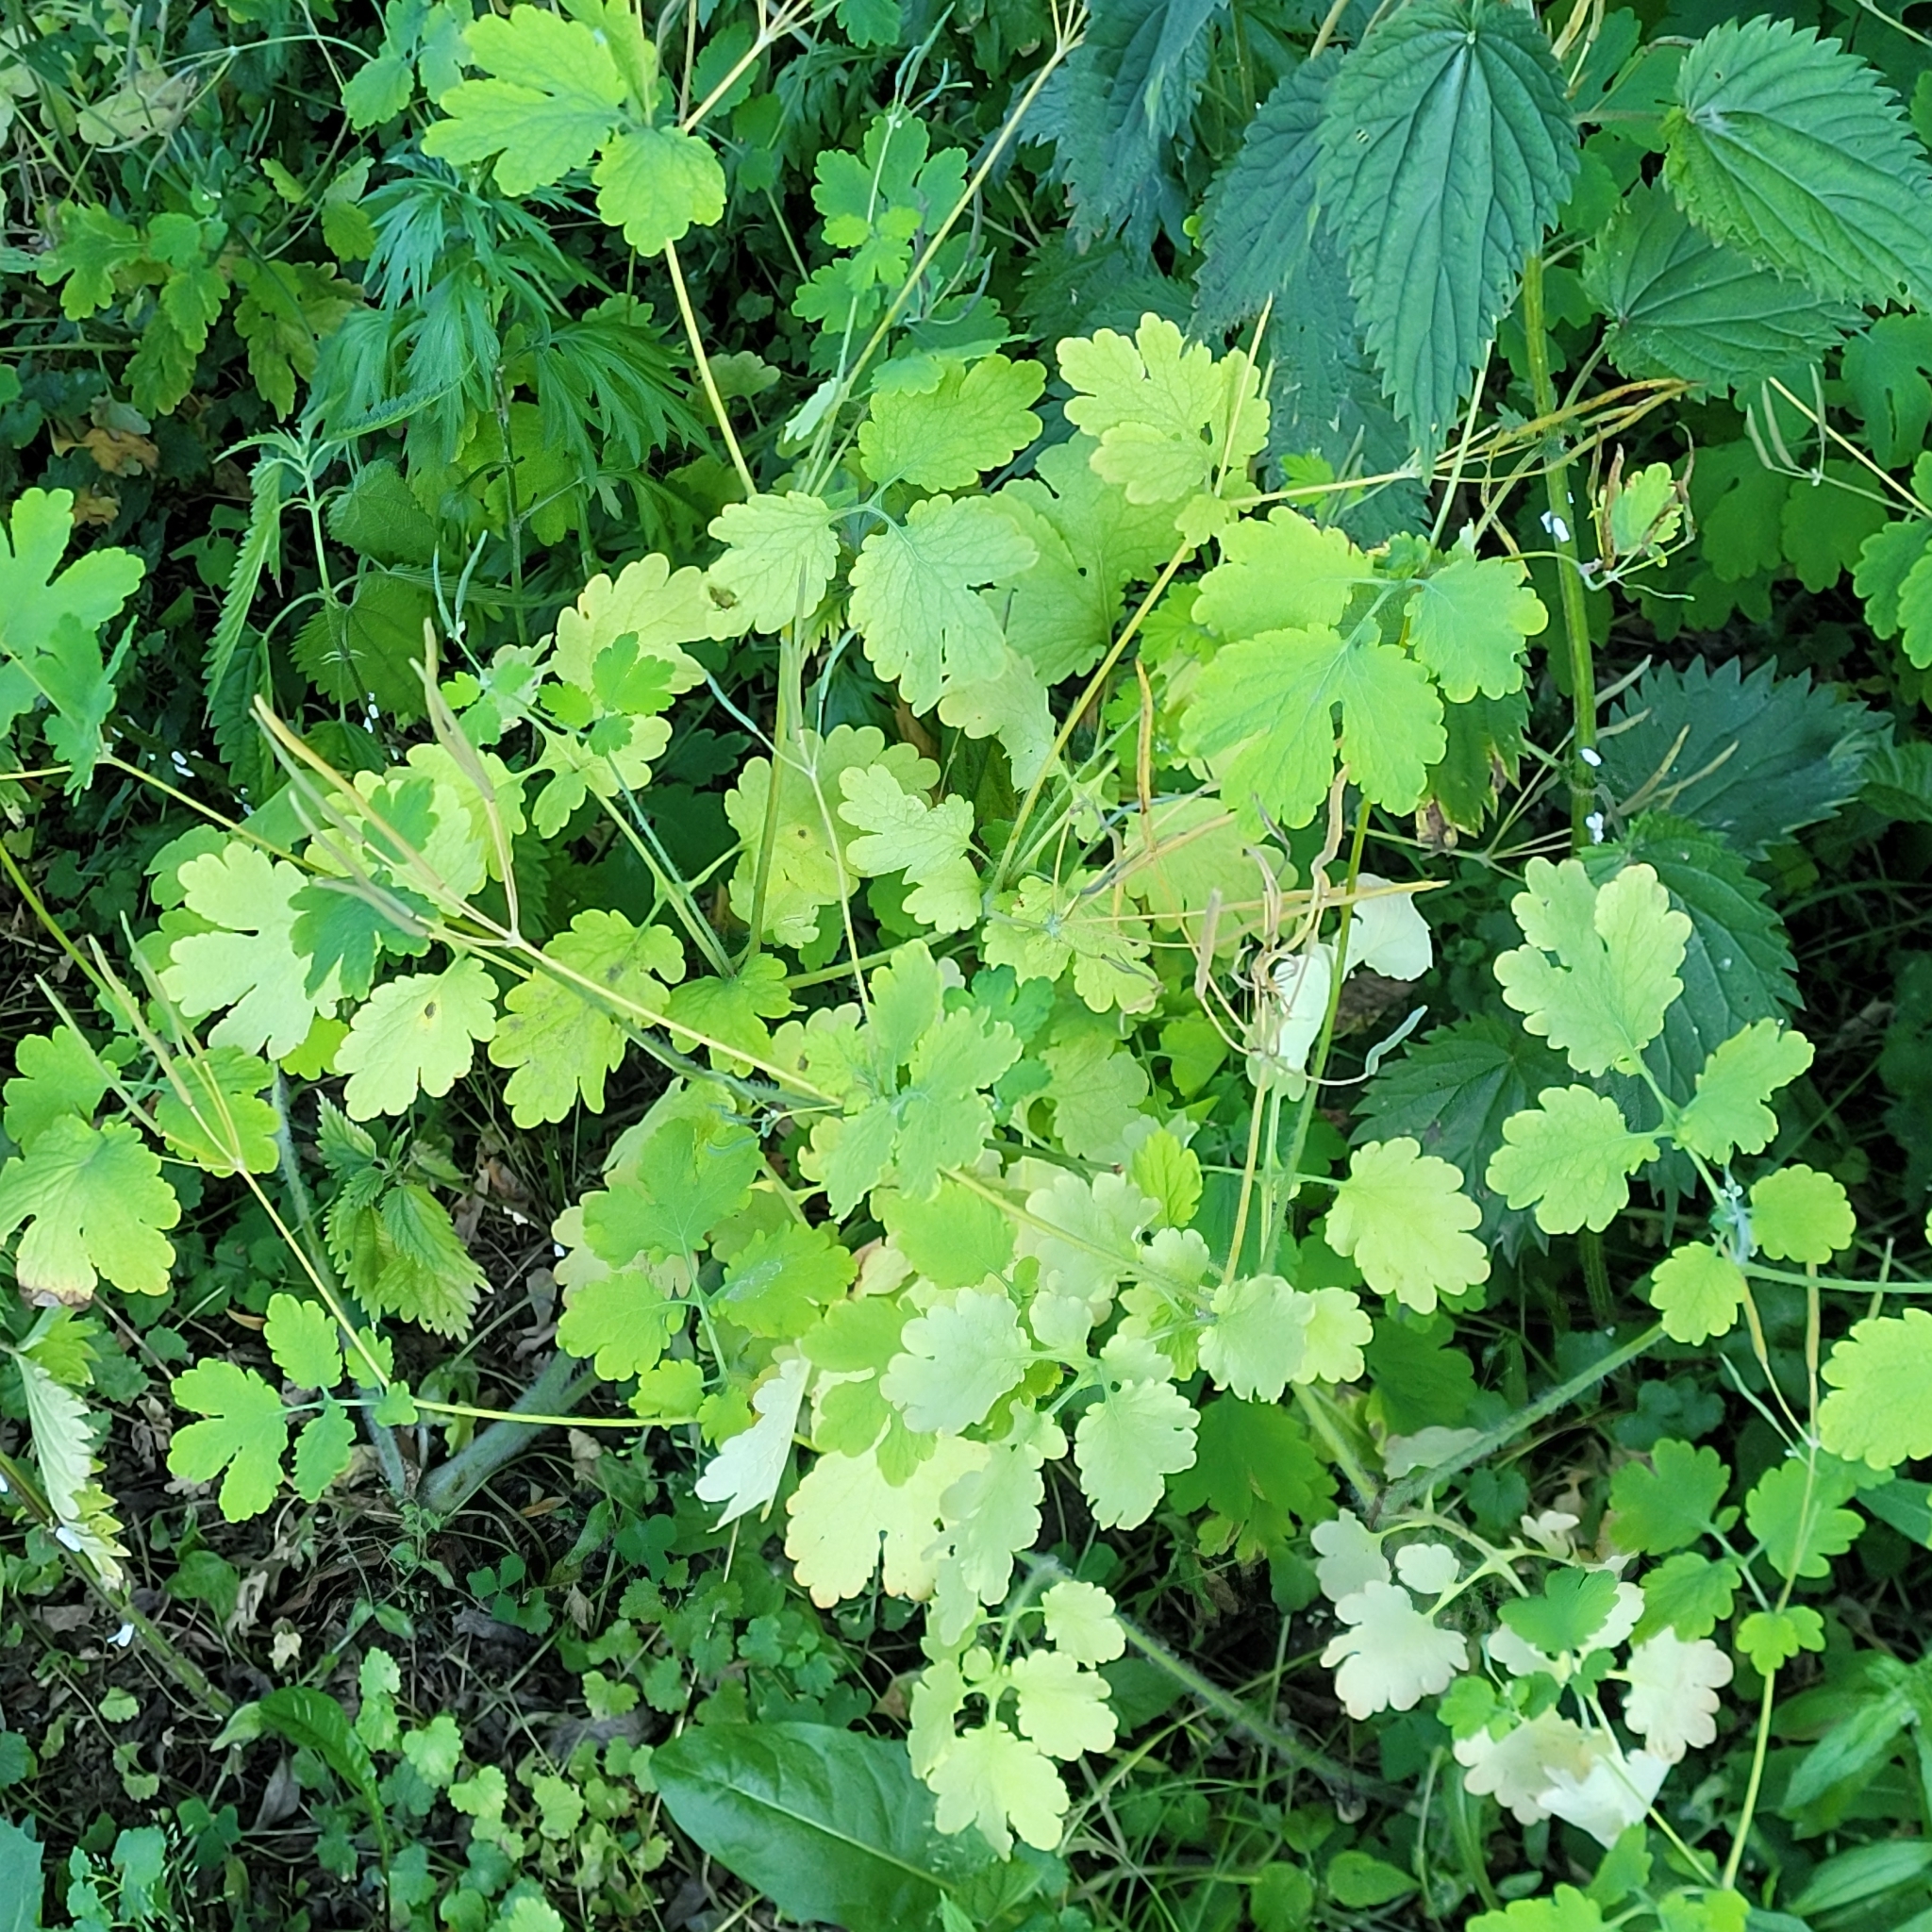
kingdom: Plantae
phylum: Tracheophyta
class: Magnoliopsida
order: Ranunculales
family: Papaveraceae
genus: Chelidonium
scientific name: Chelidonium majus
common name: Greater celandine
